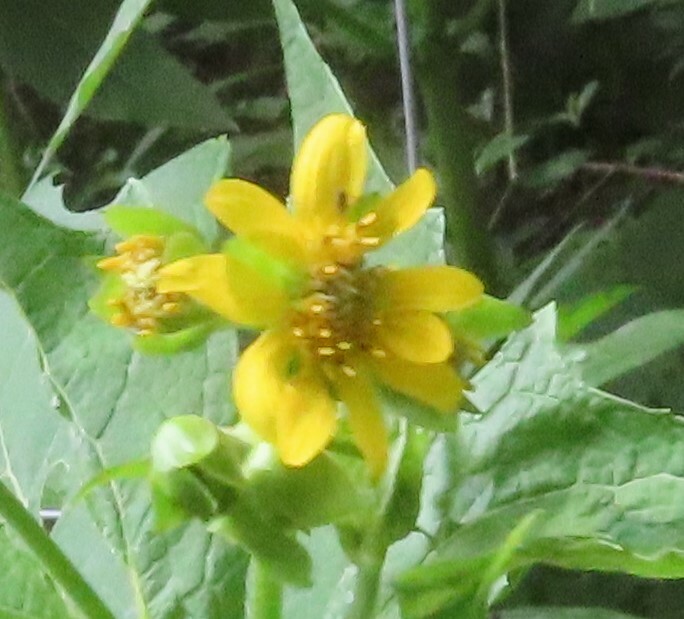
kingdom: Plantae
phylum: Tracheophyta
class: Magnoliopsida
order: Asterales
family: Asteraceae
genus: Smallanthus
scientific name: Smallanthus uvedalia
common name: Bear's-foot
